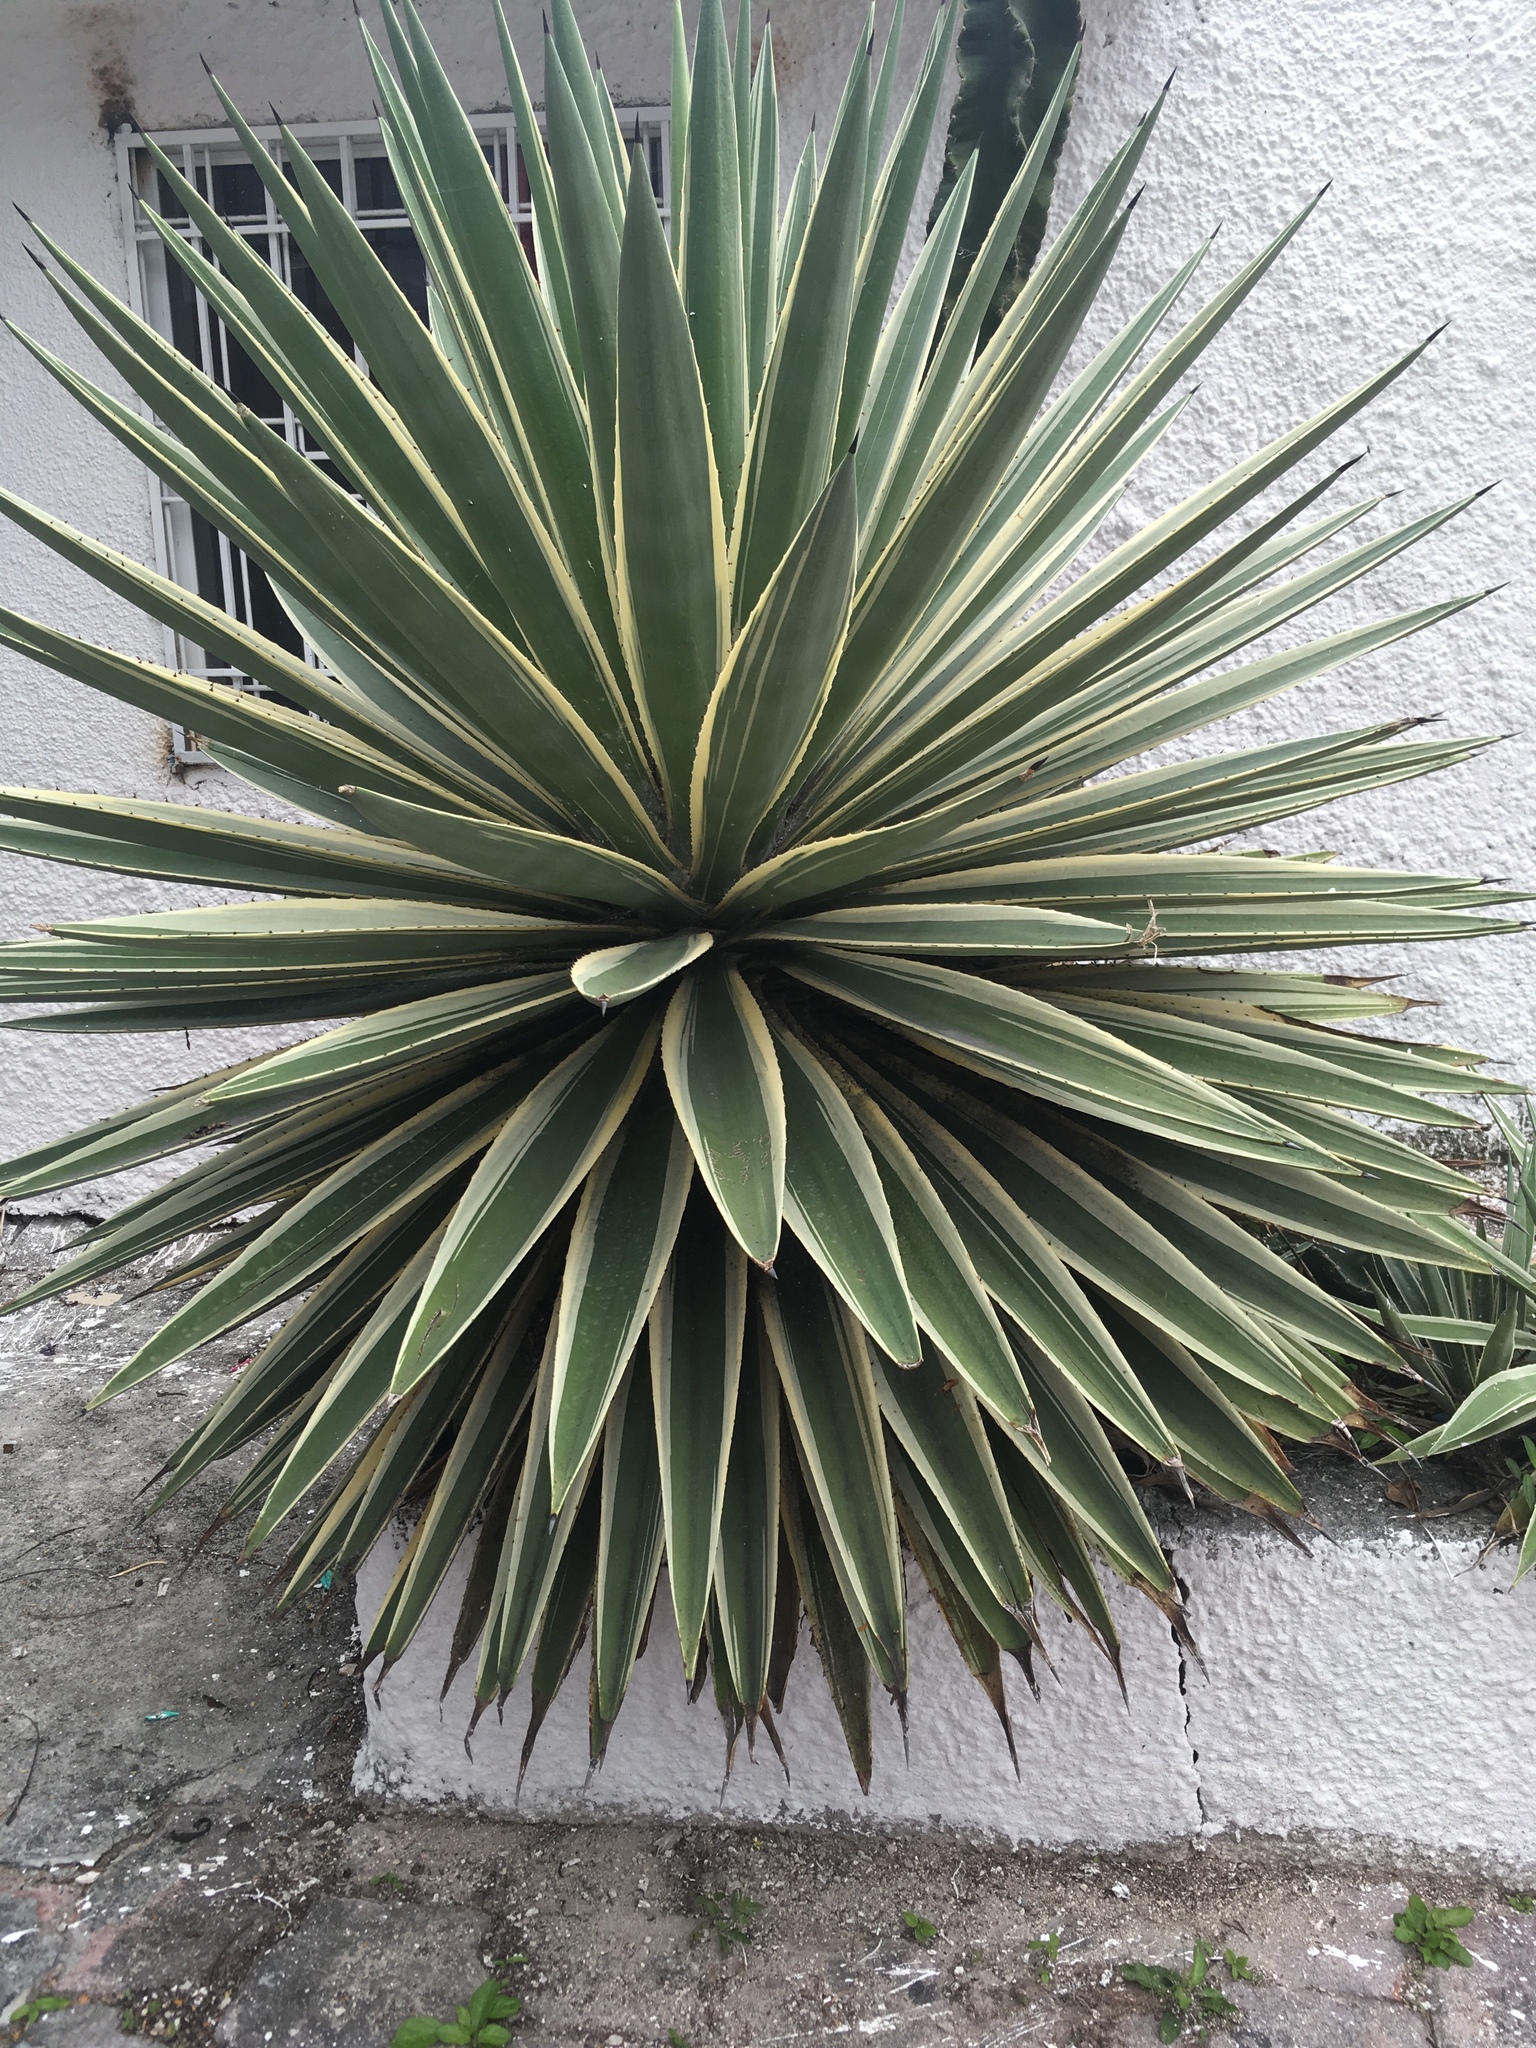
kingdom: Plantae
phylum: Tracheophyta
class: Liliopsida
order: Asparagales
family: Asparagaceae
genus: Agave
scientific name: Agave vivipara
